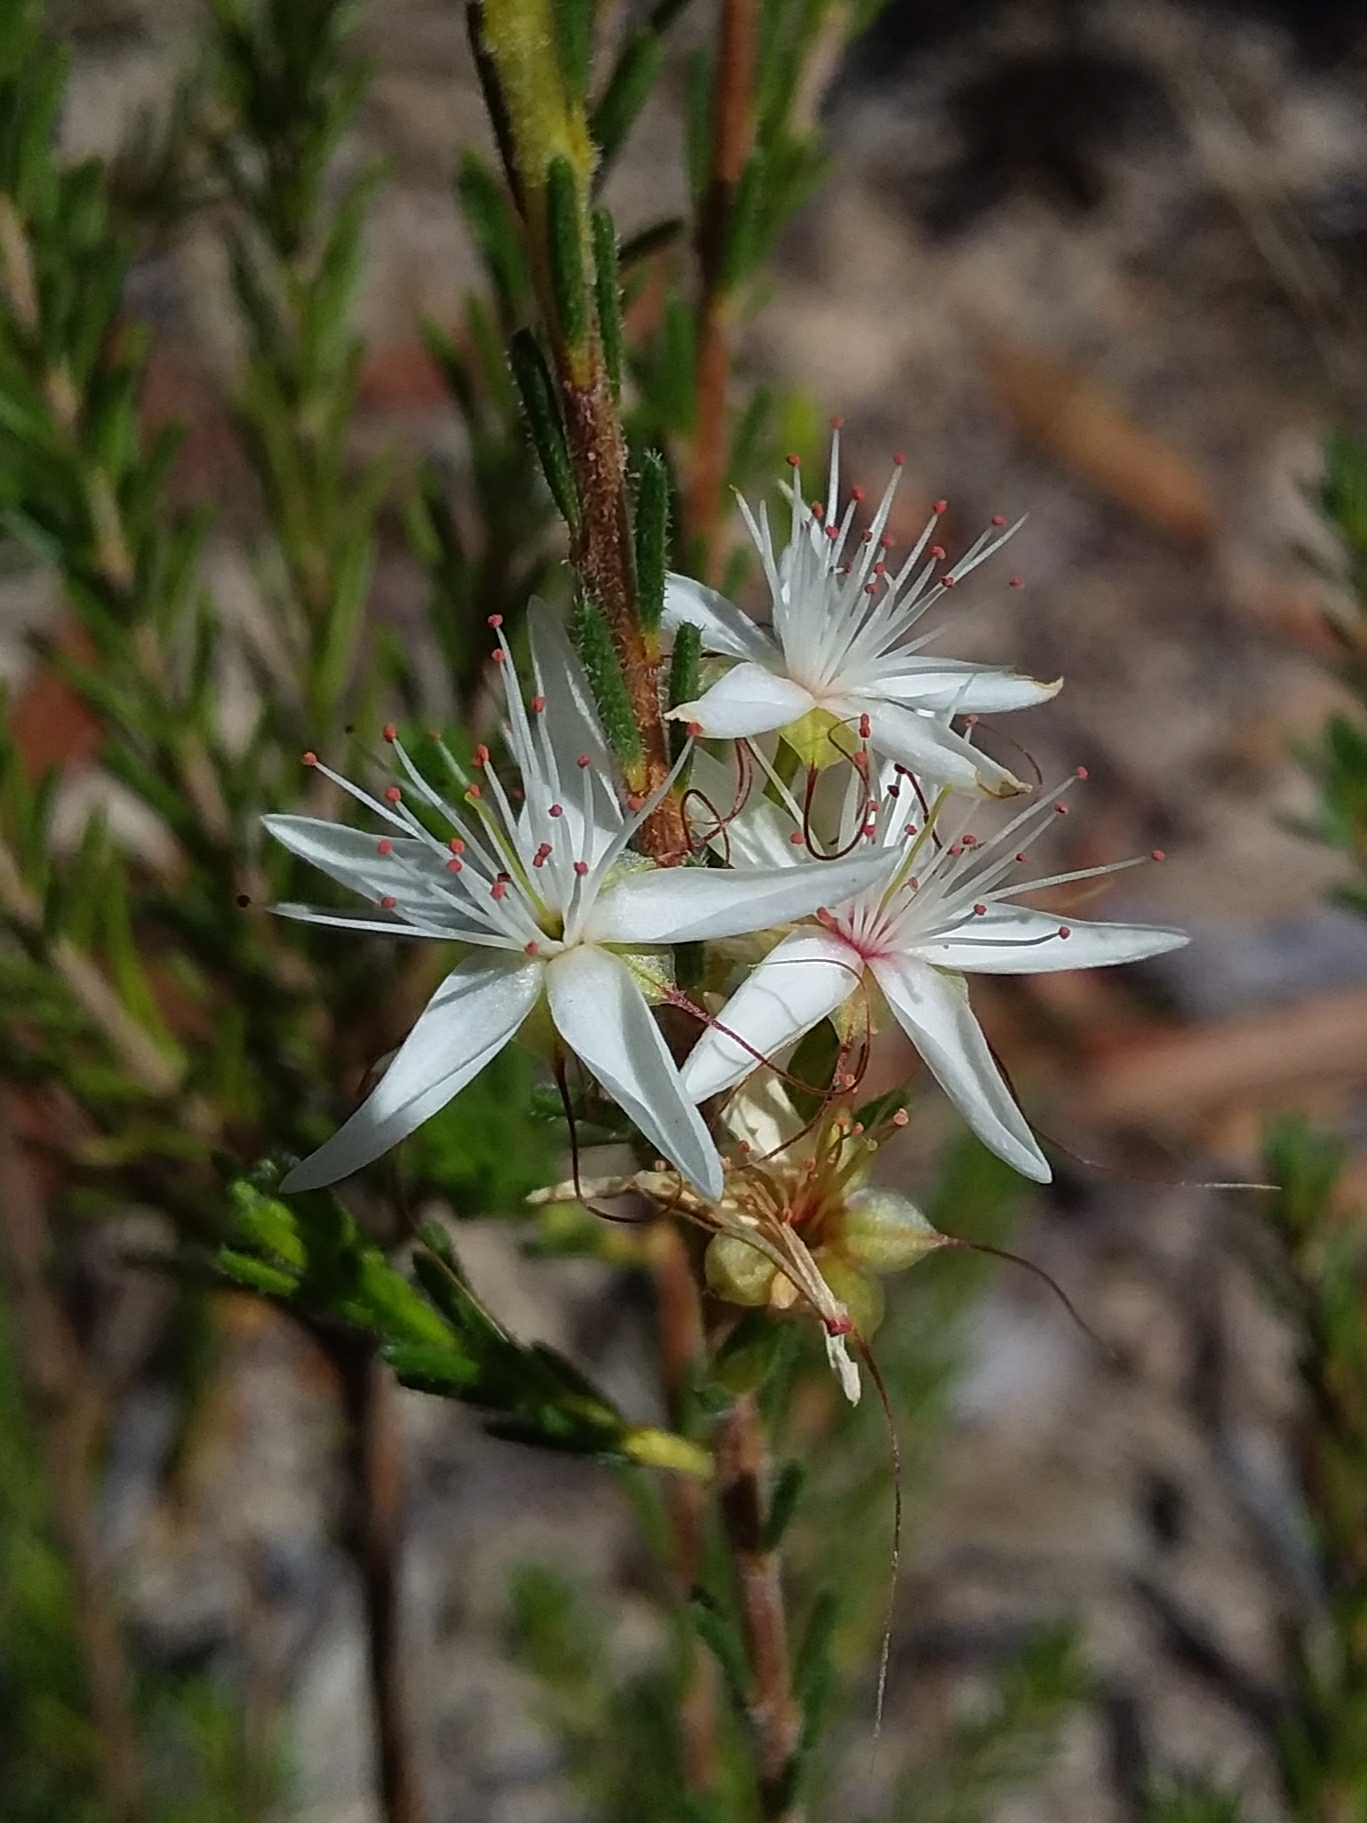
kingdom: Plantae
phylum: Tracheophyta
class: Magnoliopsida
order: Myrtales
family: Myrtaceae
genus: Calytrix
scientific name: Calytrix tetragona
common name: Common fringe myrtle
